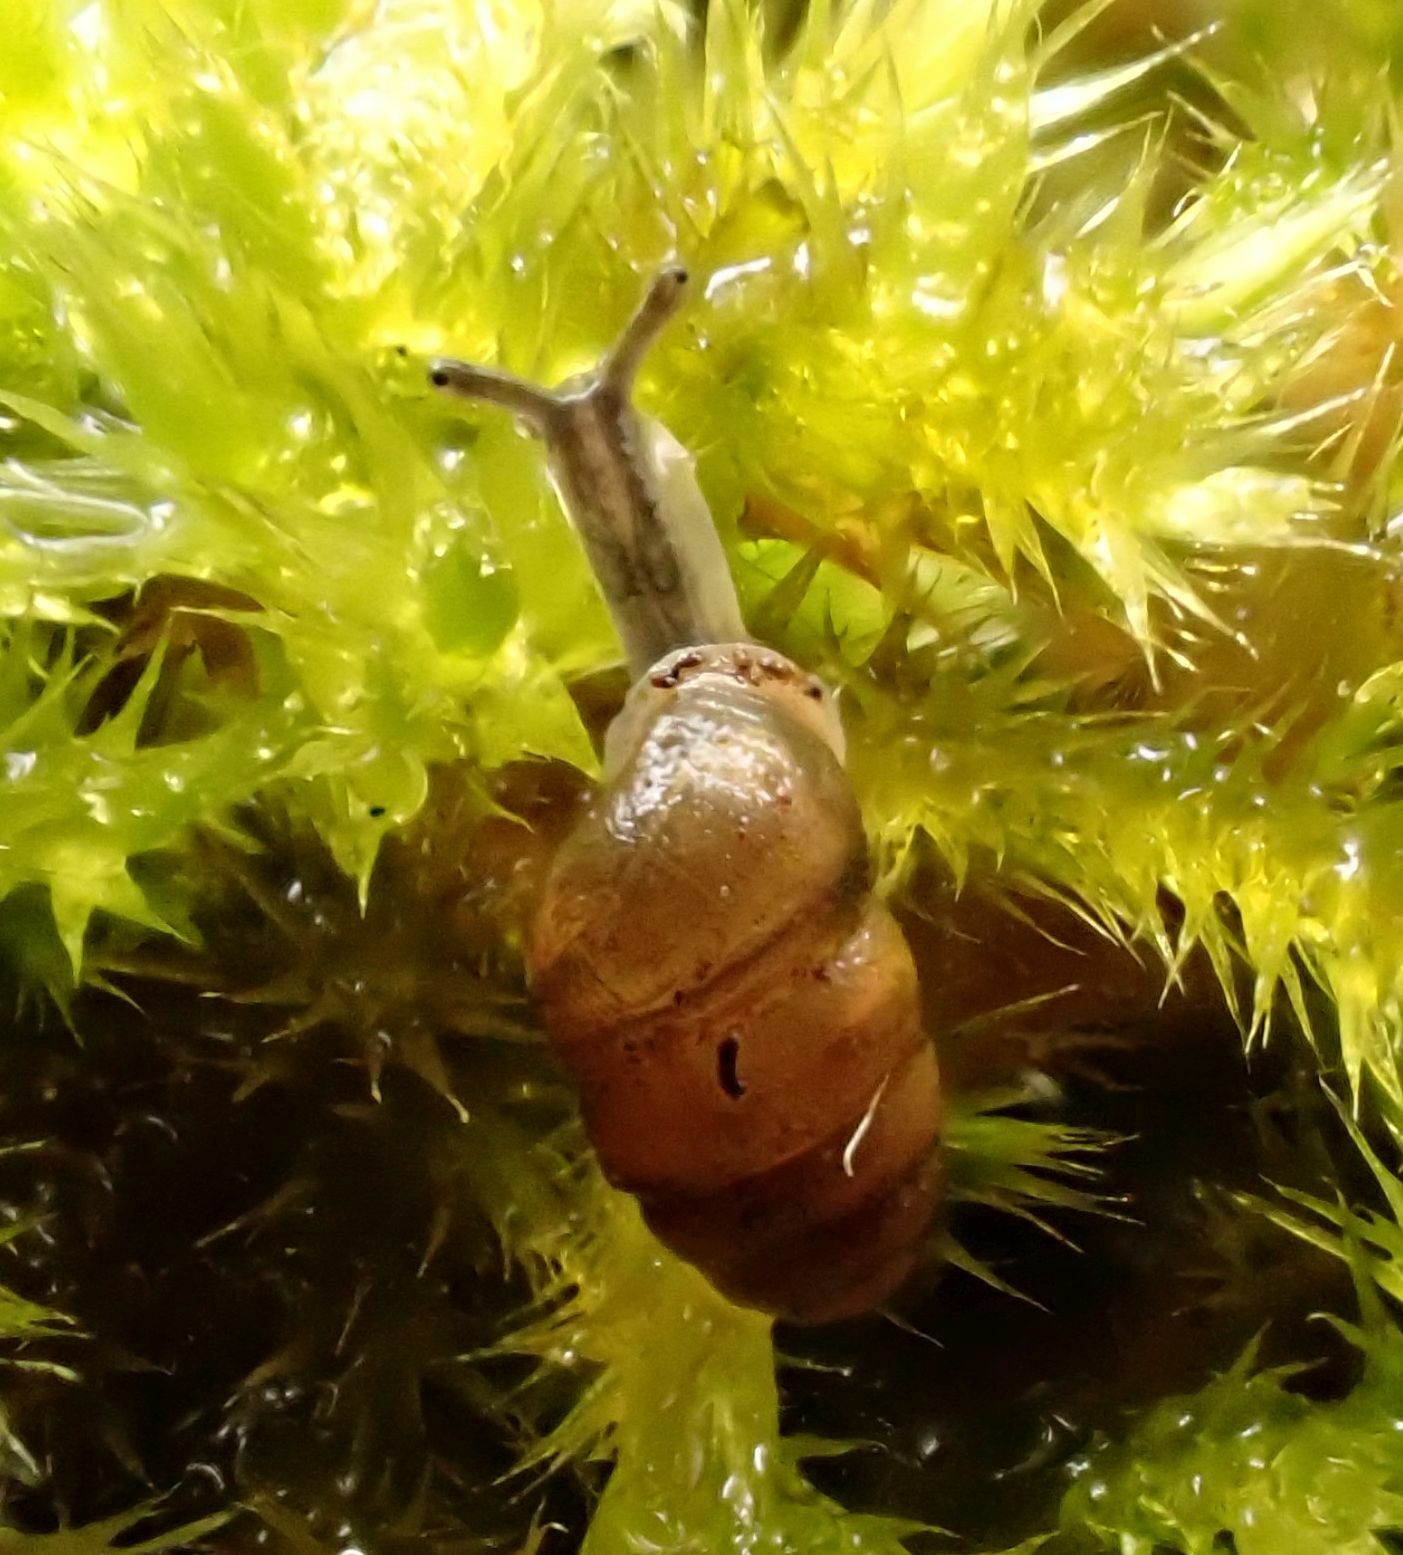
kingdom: Animalia
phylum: Mollusca
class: Gastropoda
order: Stylommatophora
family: Lauriidae
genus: Lauria
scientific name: Lauria cylindracea
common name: Common chrysalis snail
